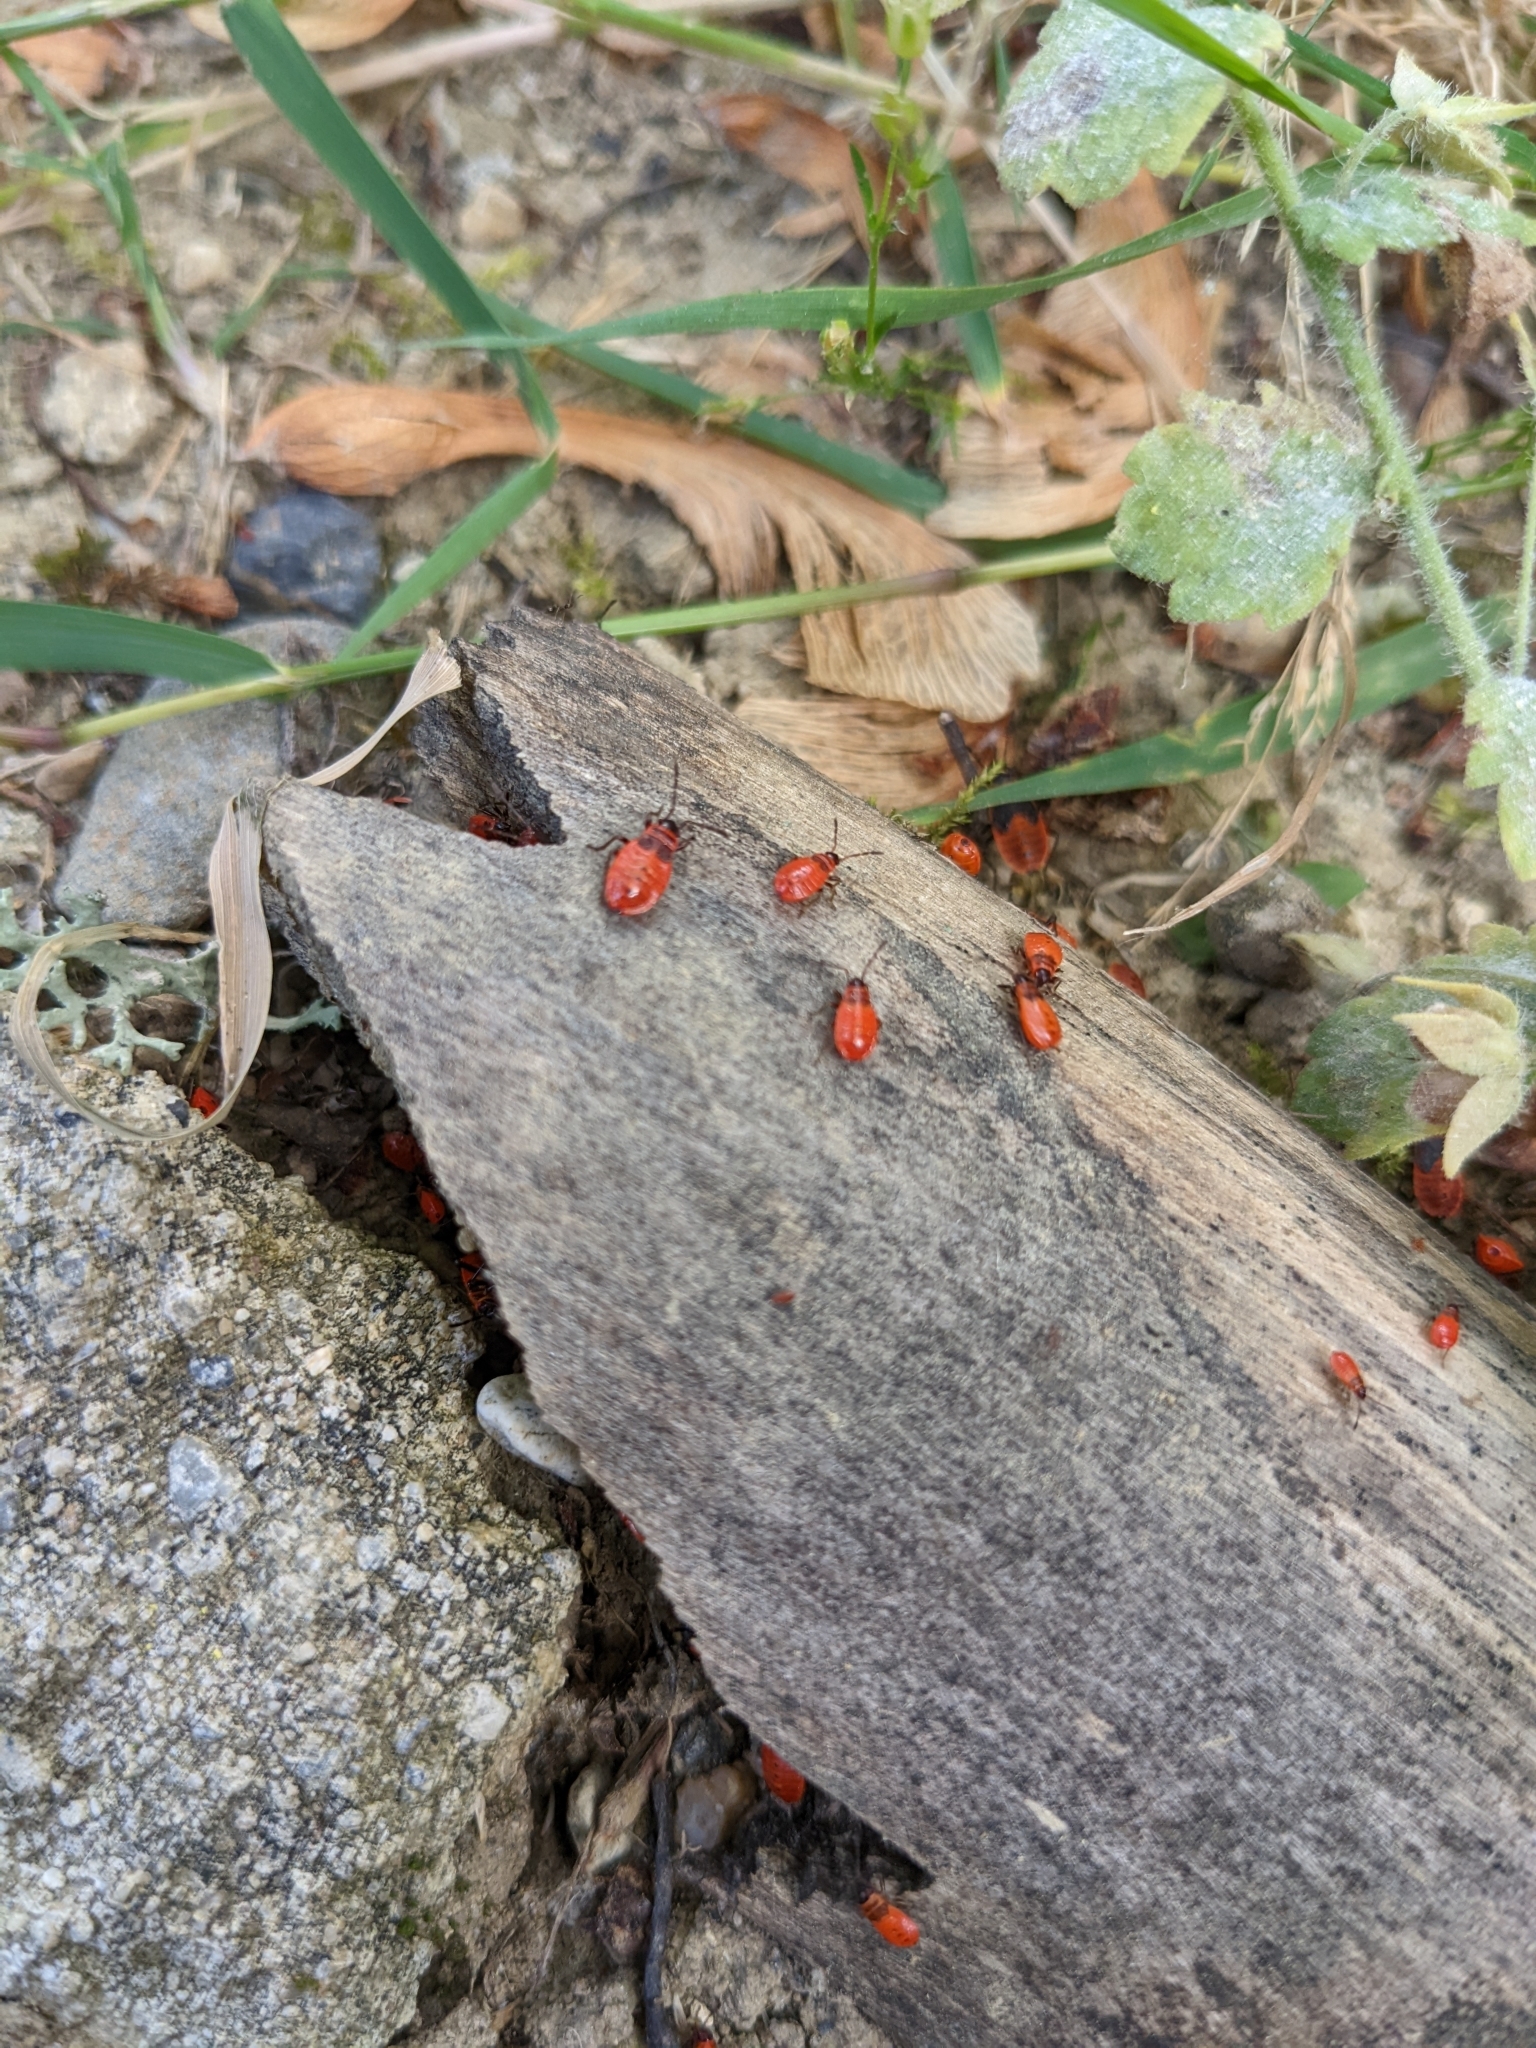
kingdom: Animalia
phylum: Arthropoda
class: Insecta
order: Hemiptera
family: Pyrrhocoridae
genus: Pyrrhocoris
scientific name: Pyrrhocoris apterus
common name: Firebug
